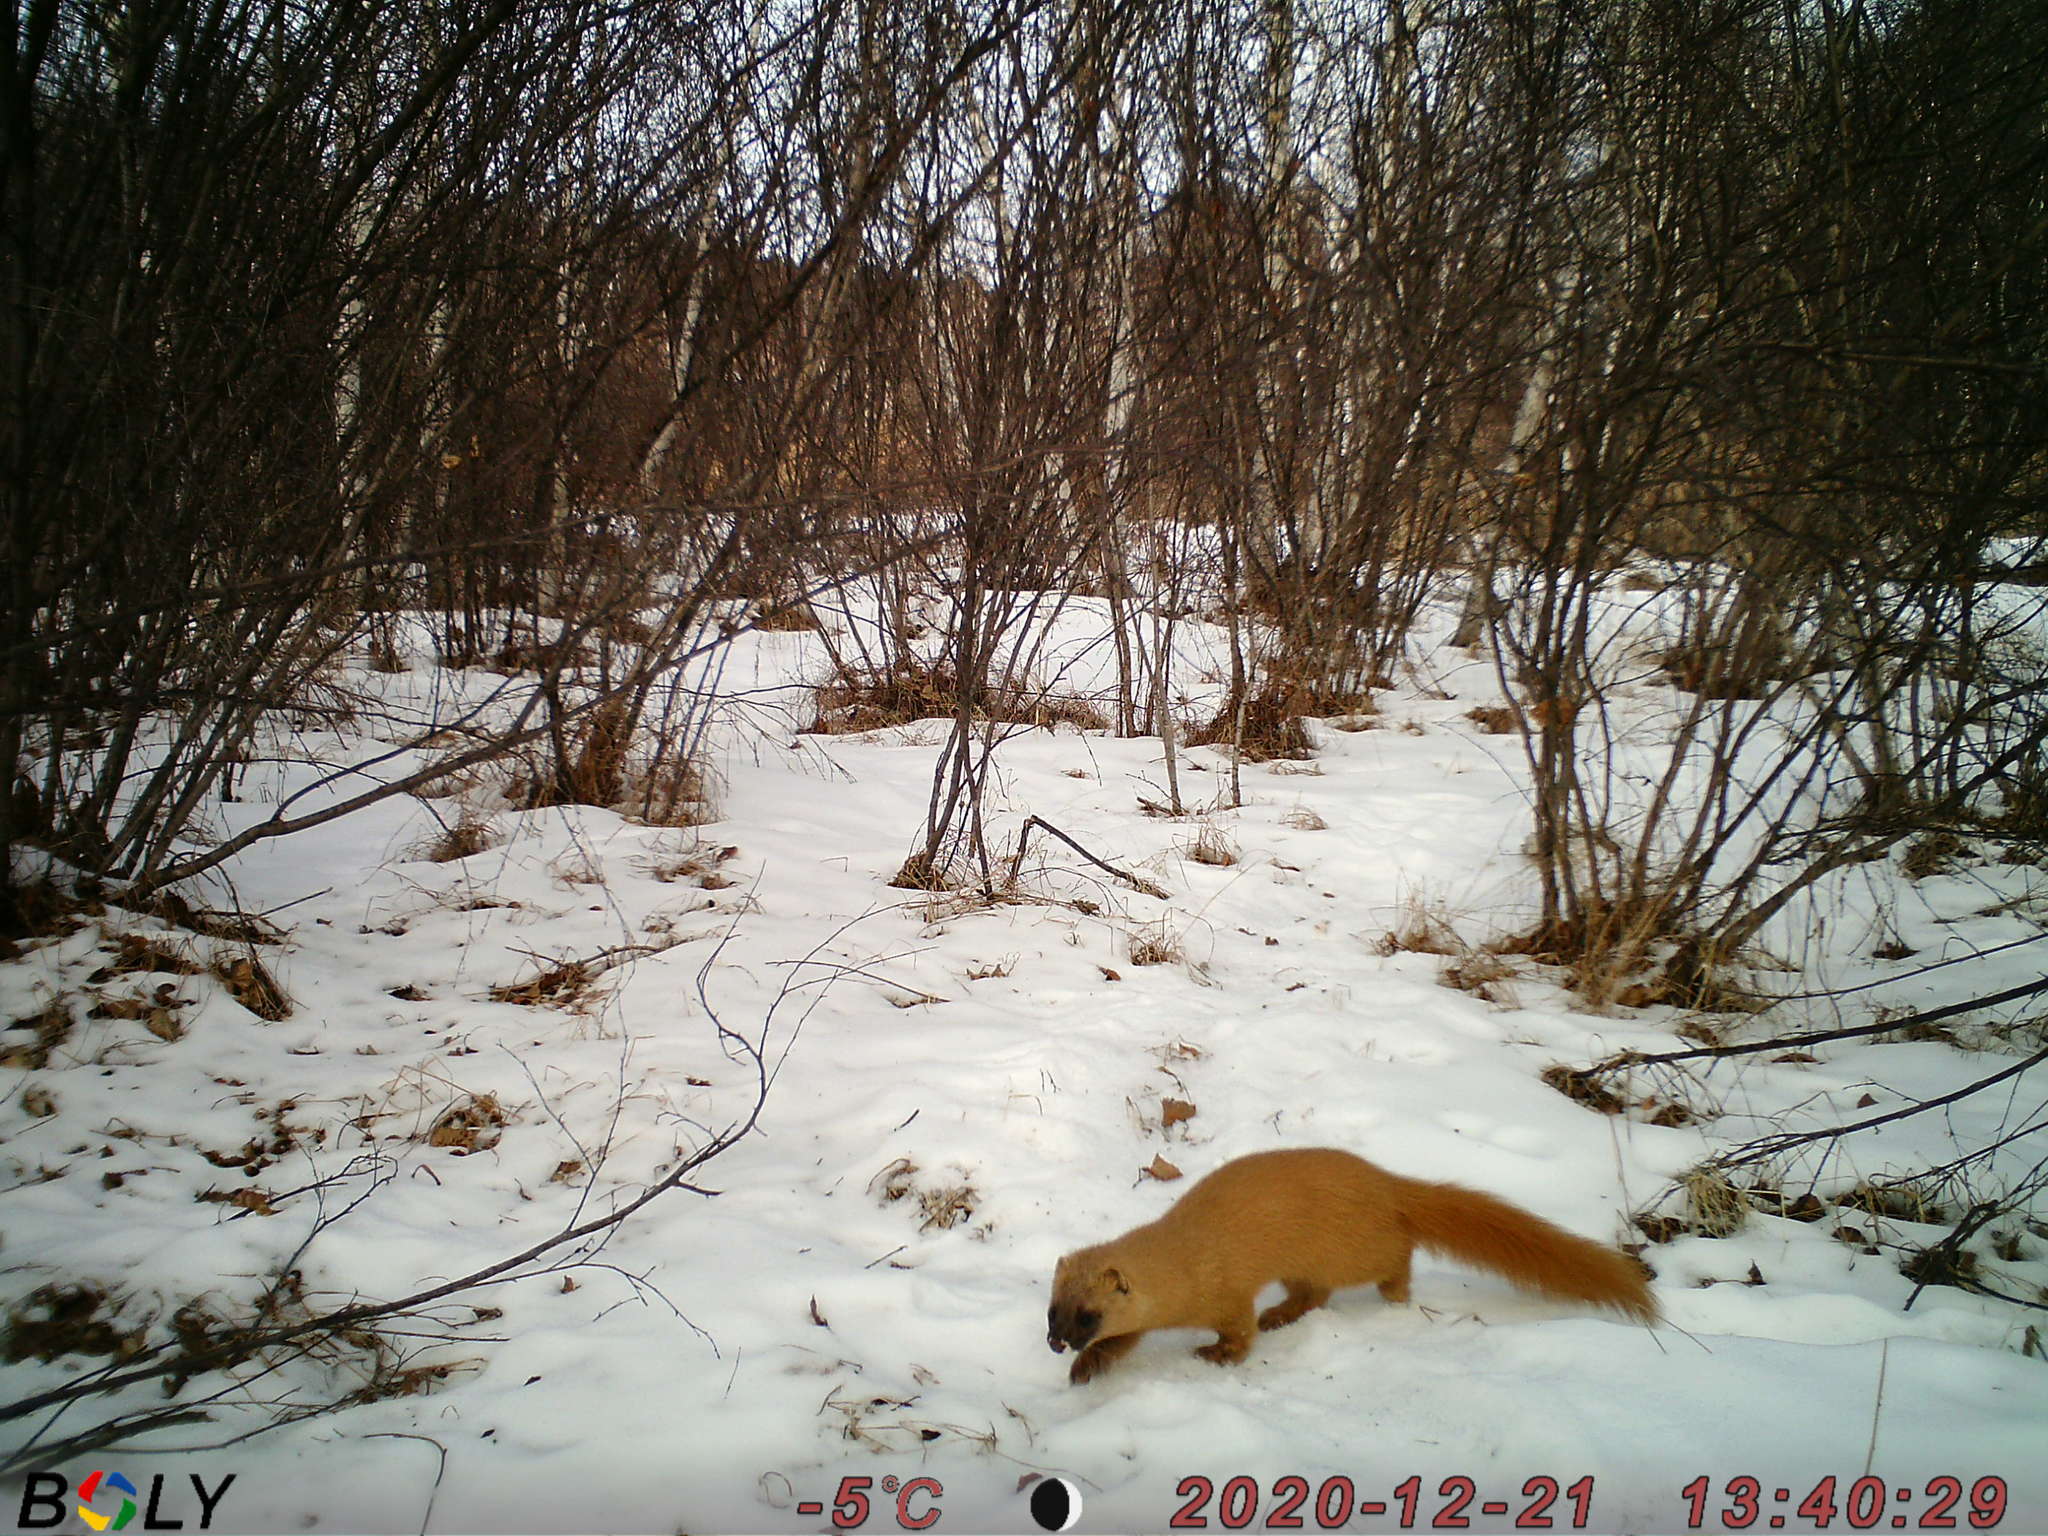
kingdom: Animalia
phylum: Chordata
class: Mammalia
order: Carnivora
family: Mustelidae
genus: Mustela
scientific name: Mustela sibirica
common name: Siberian weasel
